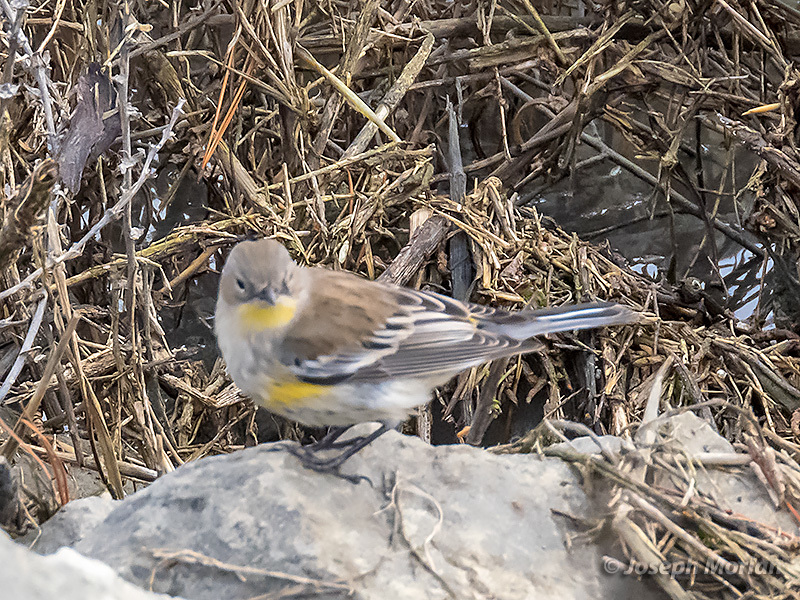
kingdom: Animalia
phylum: Chordata
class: Aves
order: Passeriformes
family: Parulidae
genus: Setophaga
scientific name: Setophaga coronata
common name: Myrtle warbler
